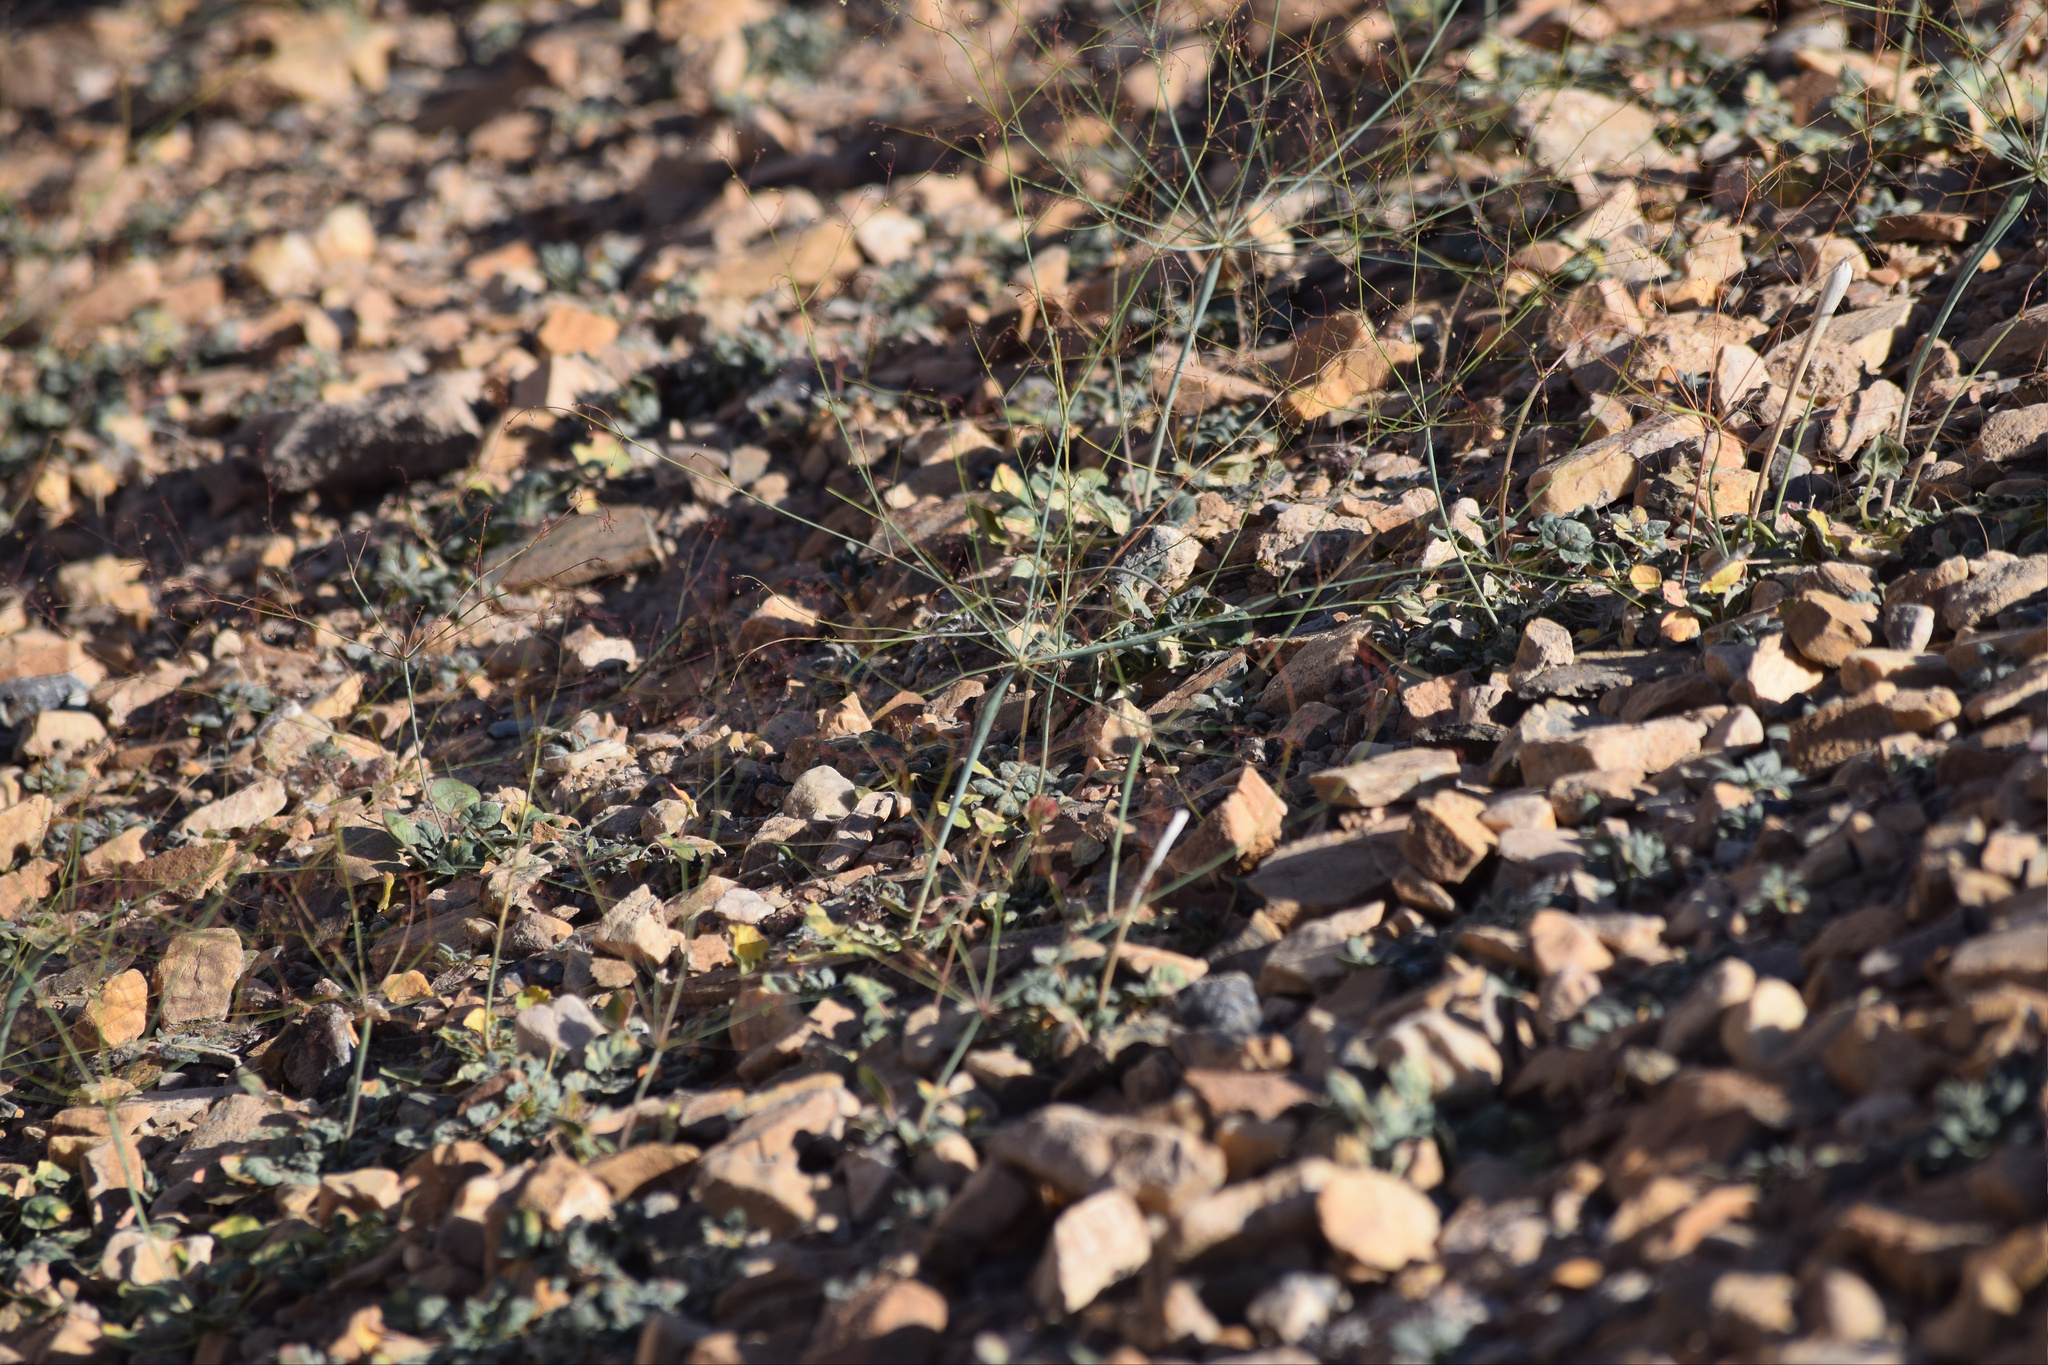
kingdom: Plantae
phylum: Tracheophyta
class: Magnoliopsida
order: Caryophyllales
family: Polygonaceae
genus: Eriogonum
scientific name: Eriogonum trichopes
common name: Little desert trumpet
